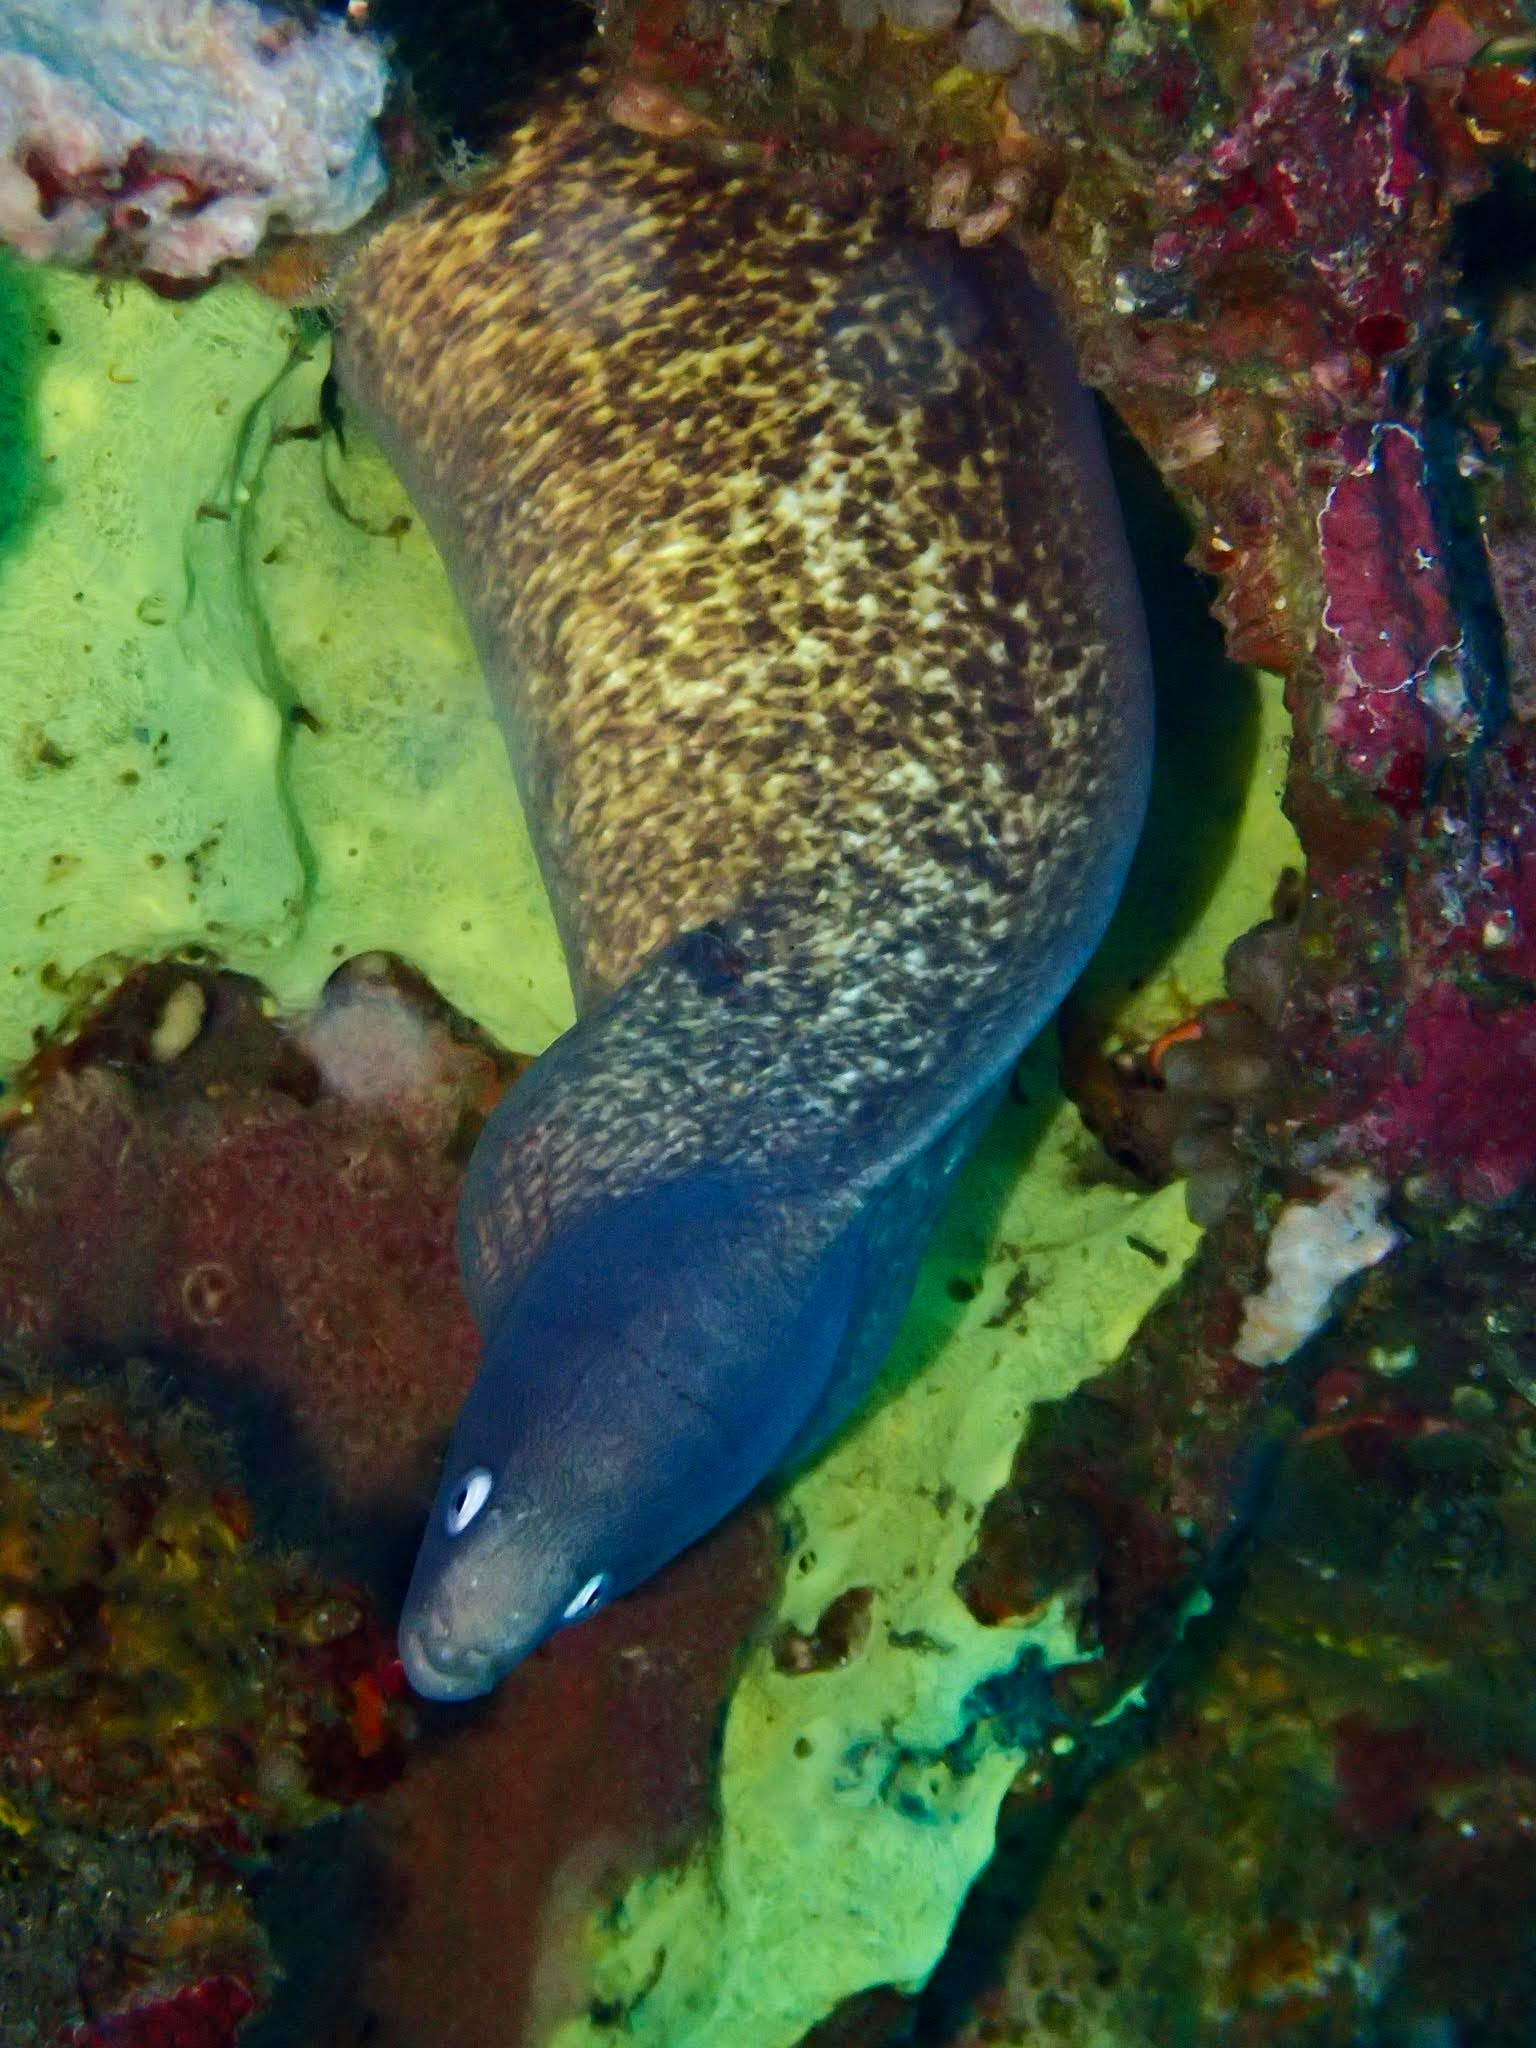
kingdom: Animalia
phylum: Chordata
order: Anguilliformes
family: Muraenidae
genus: Gymnothorax
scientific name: Gymnothorax thyrsoideus
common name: Greyface moray
